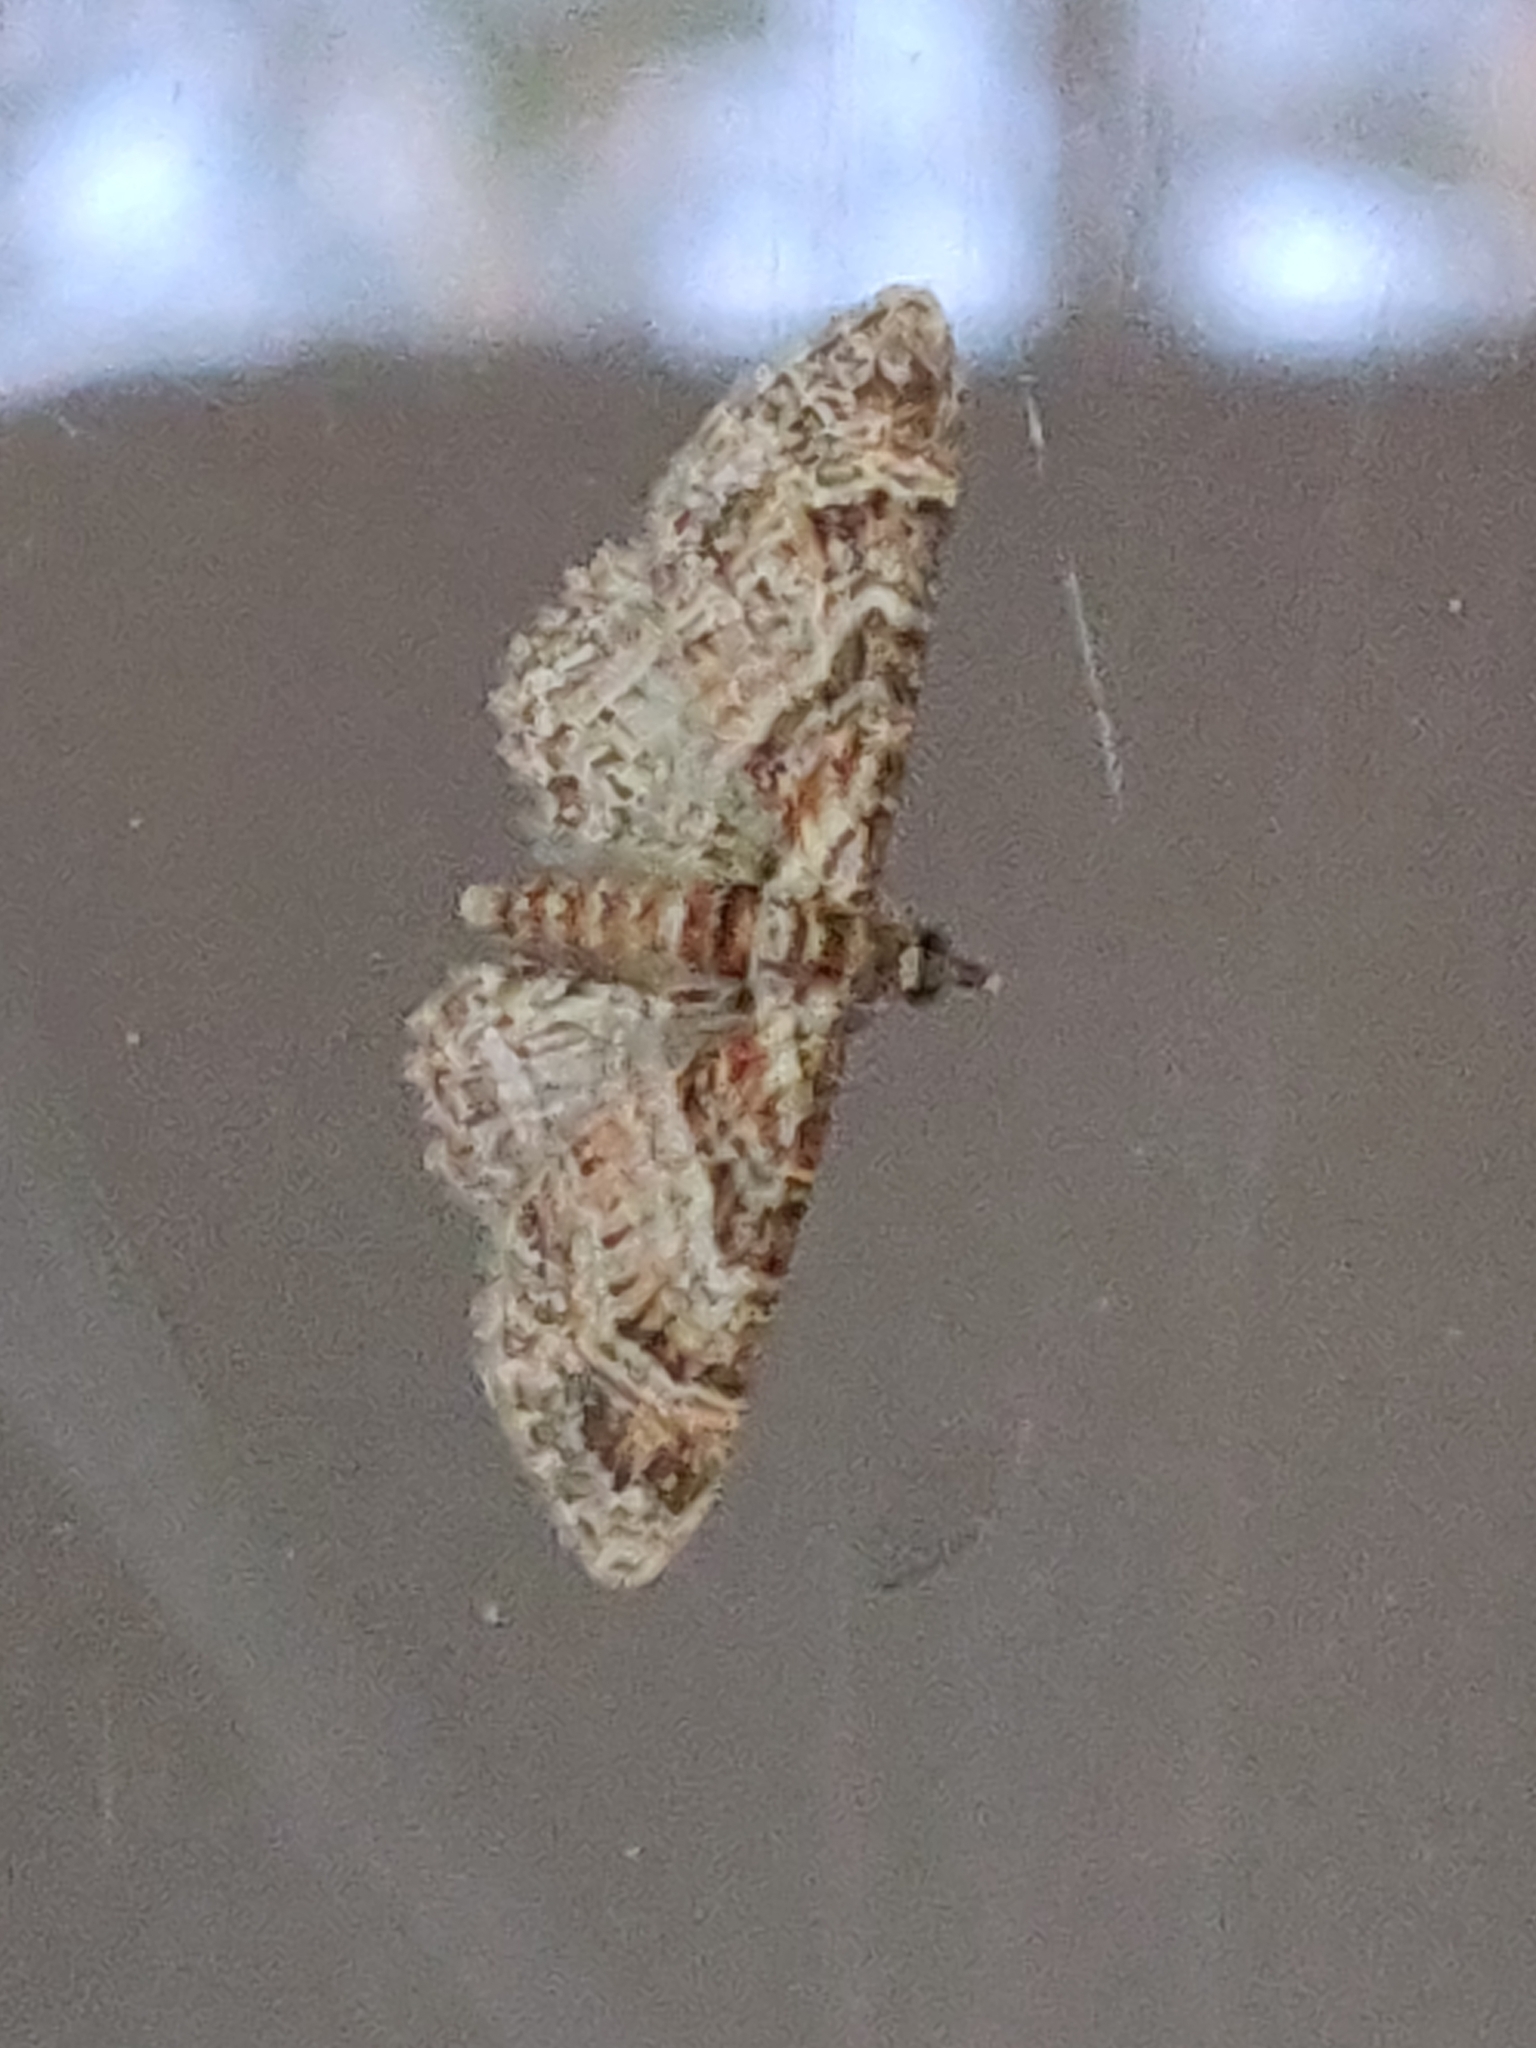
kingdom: Animalia
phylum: Arthropoda
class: Insecta
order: Lepidoptera
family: Geometridae
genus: Gymnoscelis
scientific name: Gymnoscelis rufifasciata
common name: Double-striped pug
